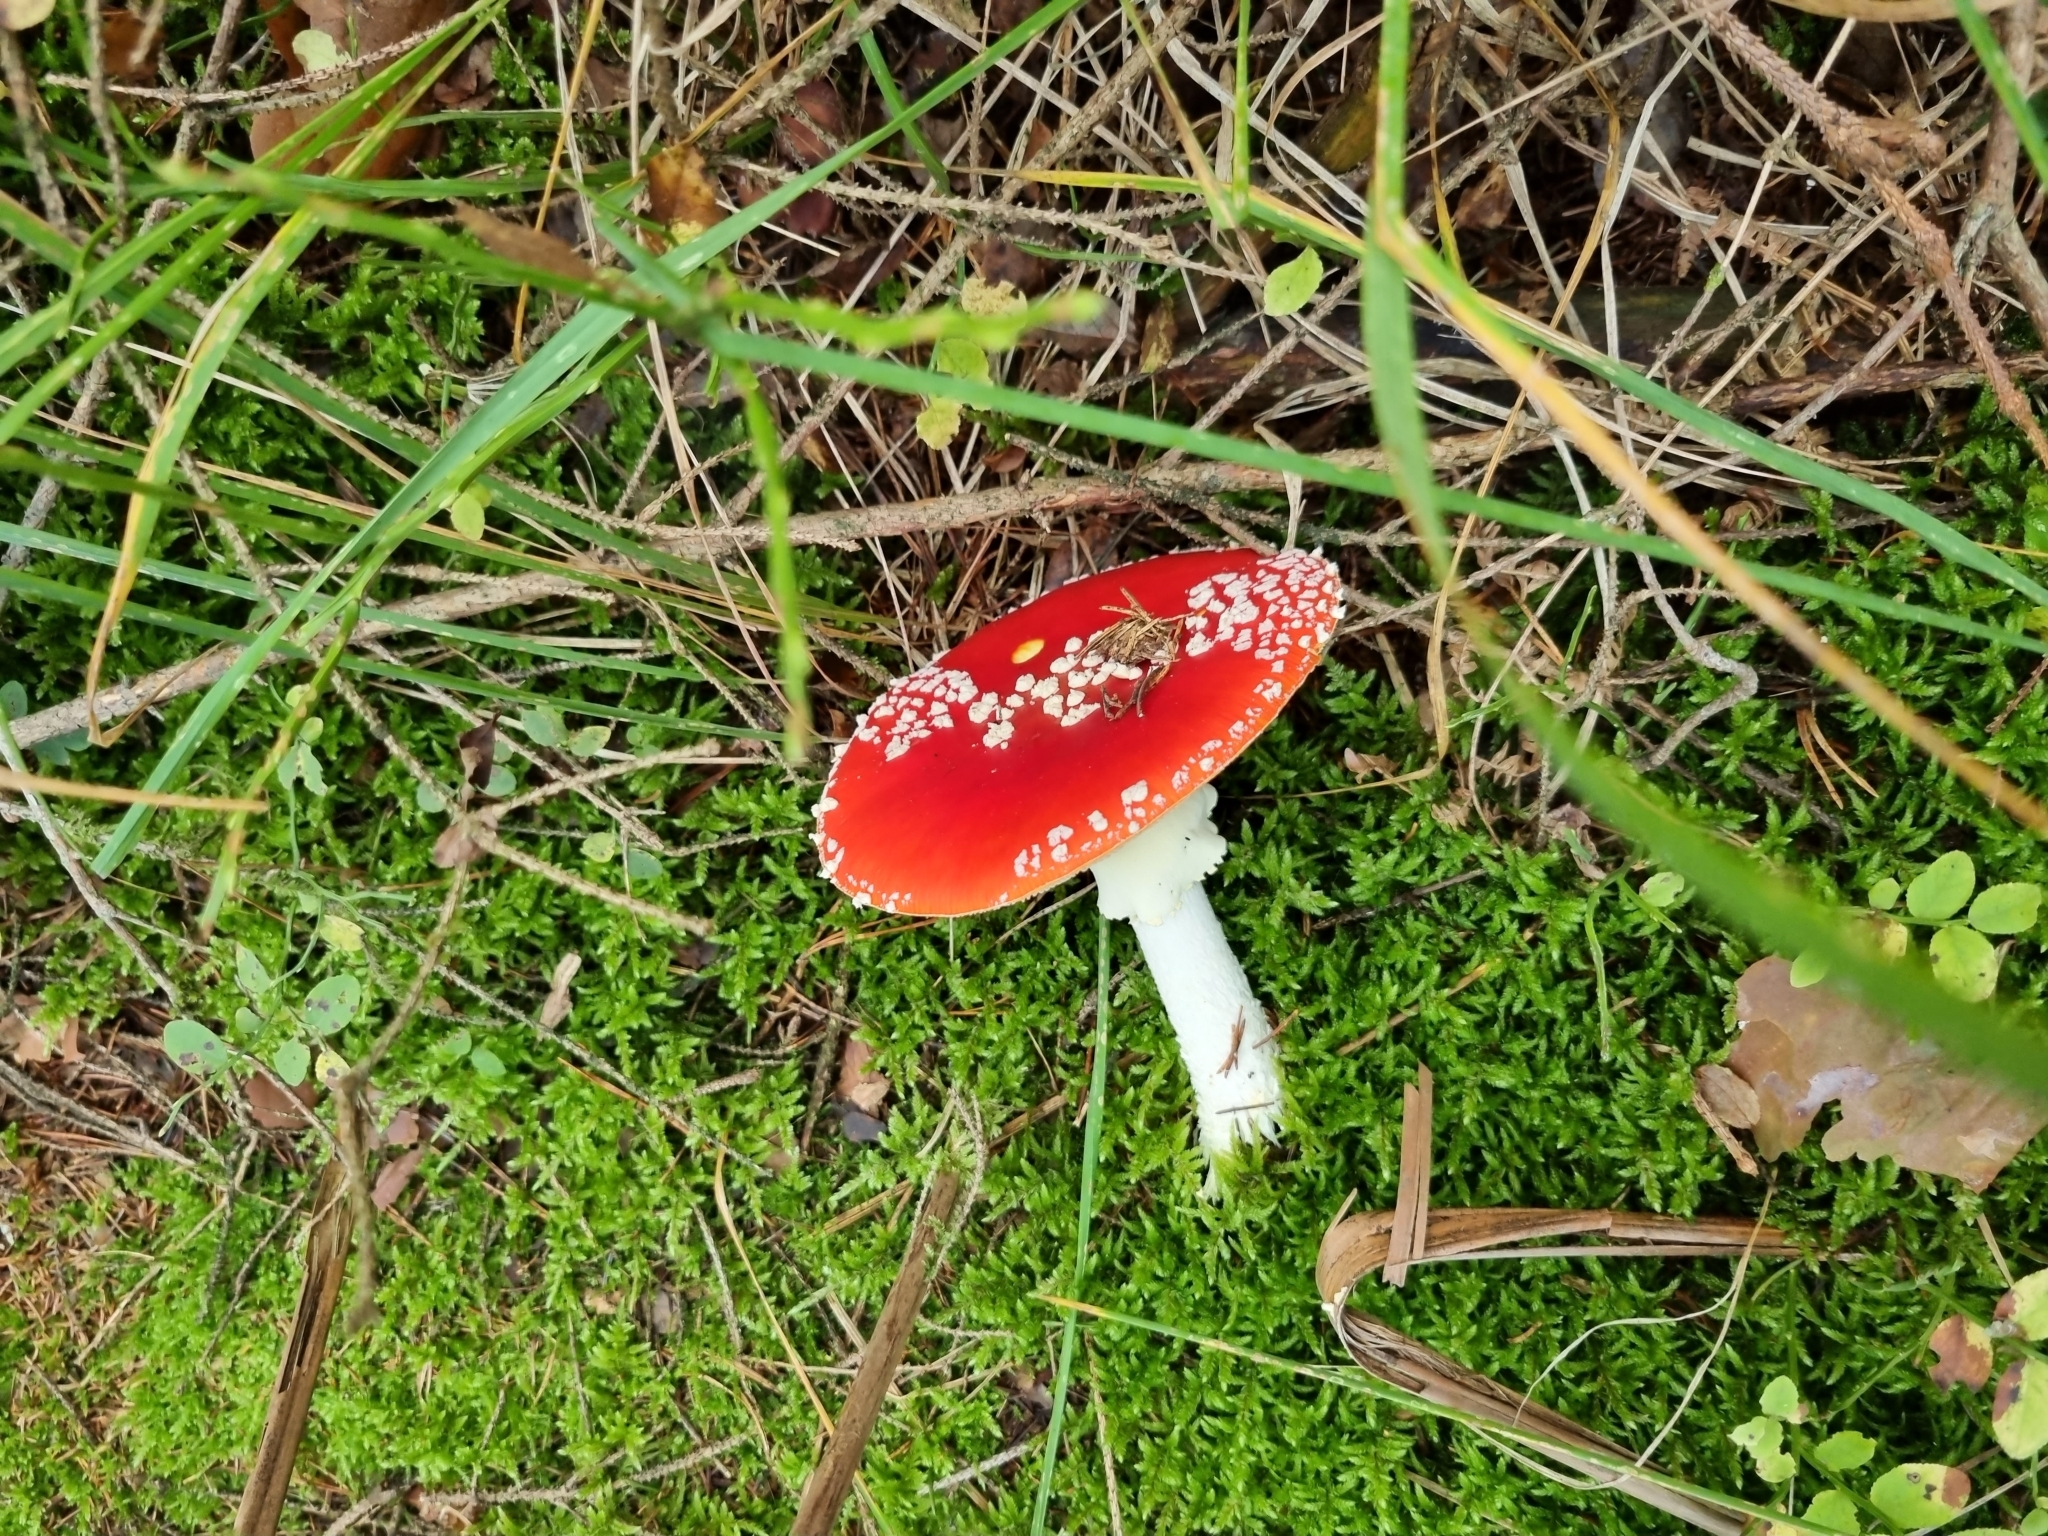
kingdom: Fungi
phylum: Basidiomycota
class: Agaricomycetes
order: Agaricales
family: Amanitaceae
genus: Amanita
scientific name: Amanita muscaria
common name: Fly agaric
